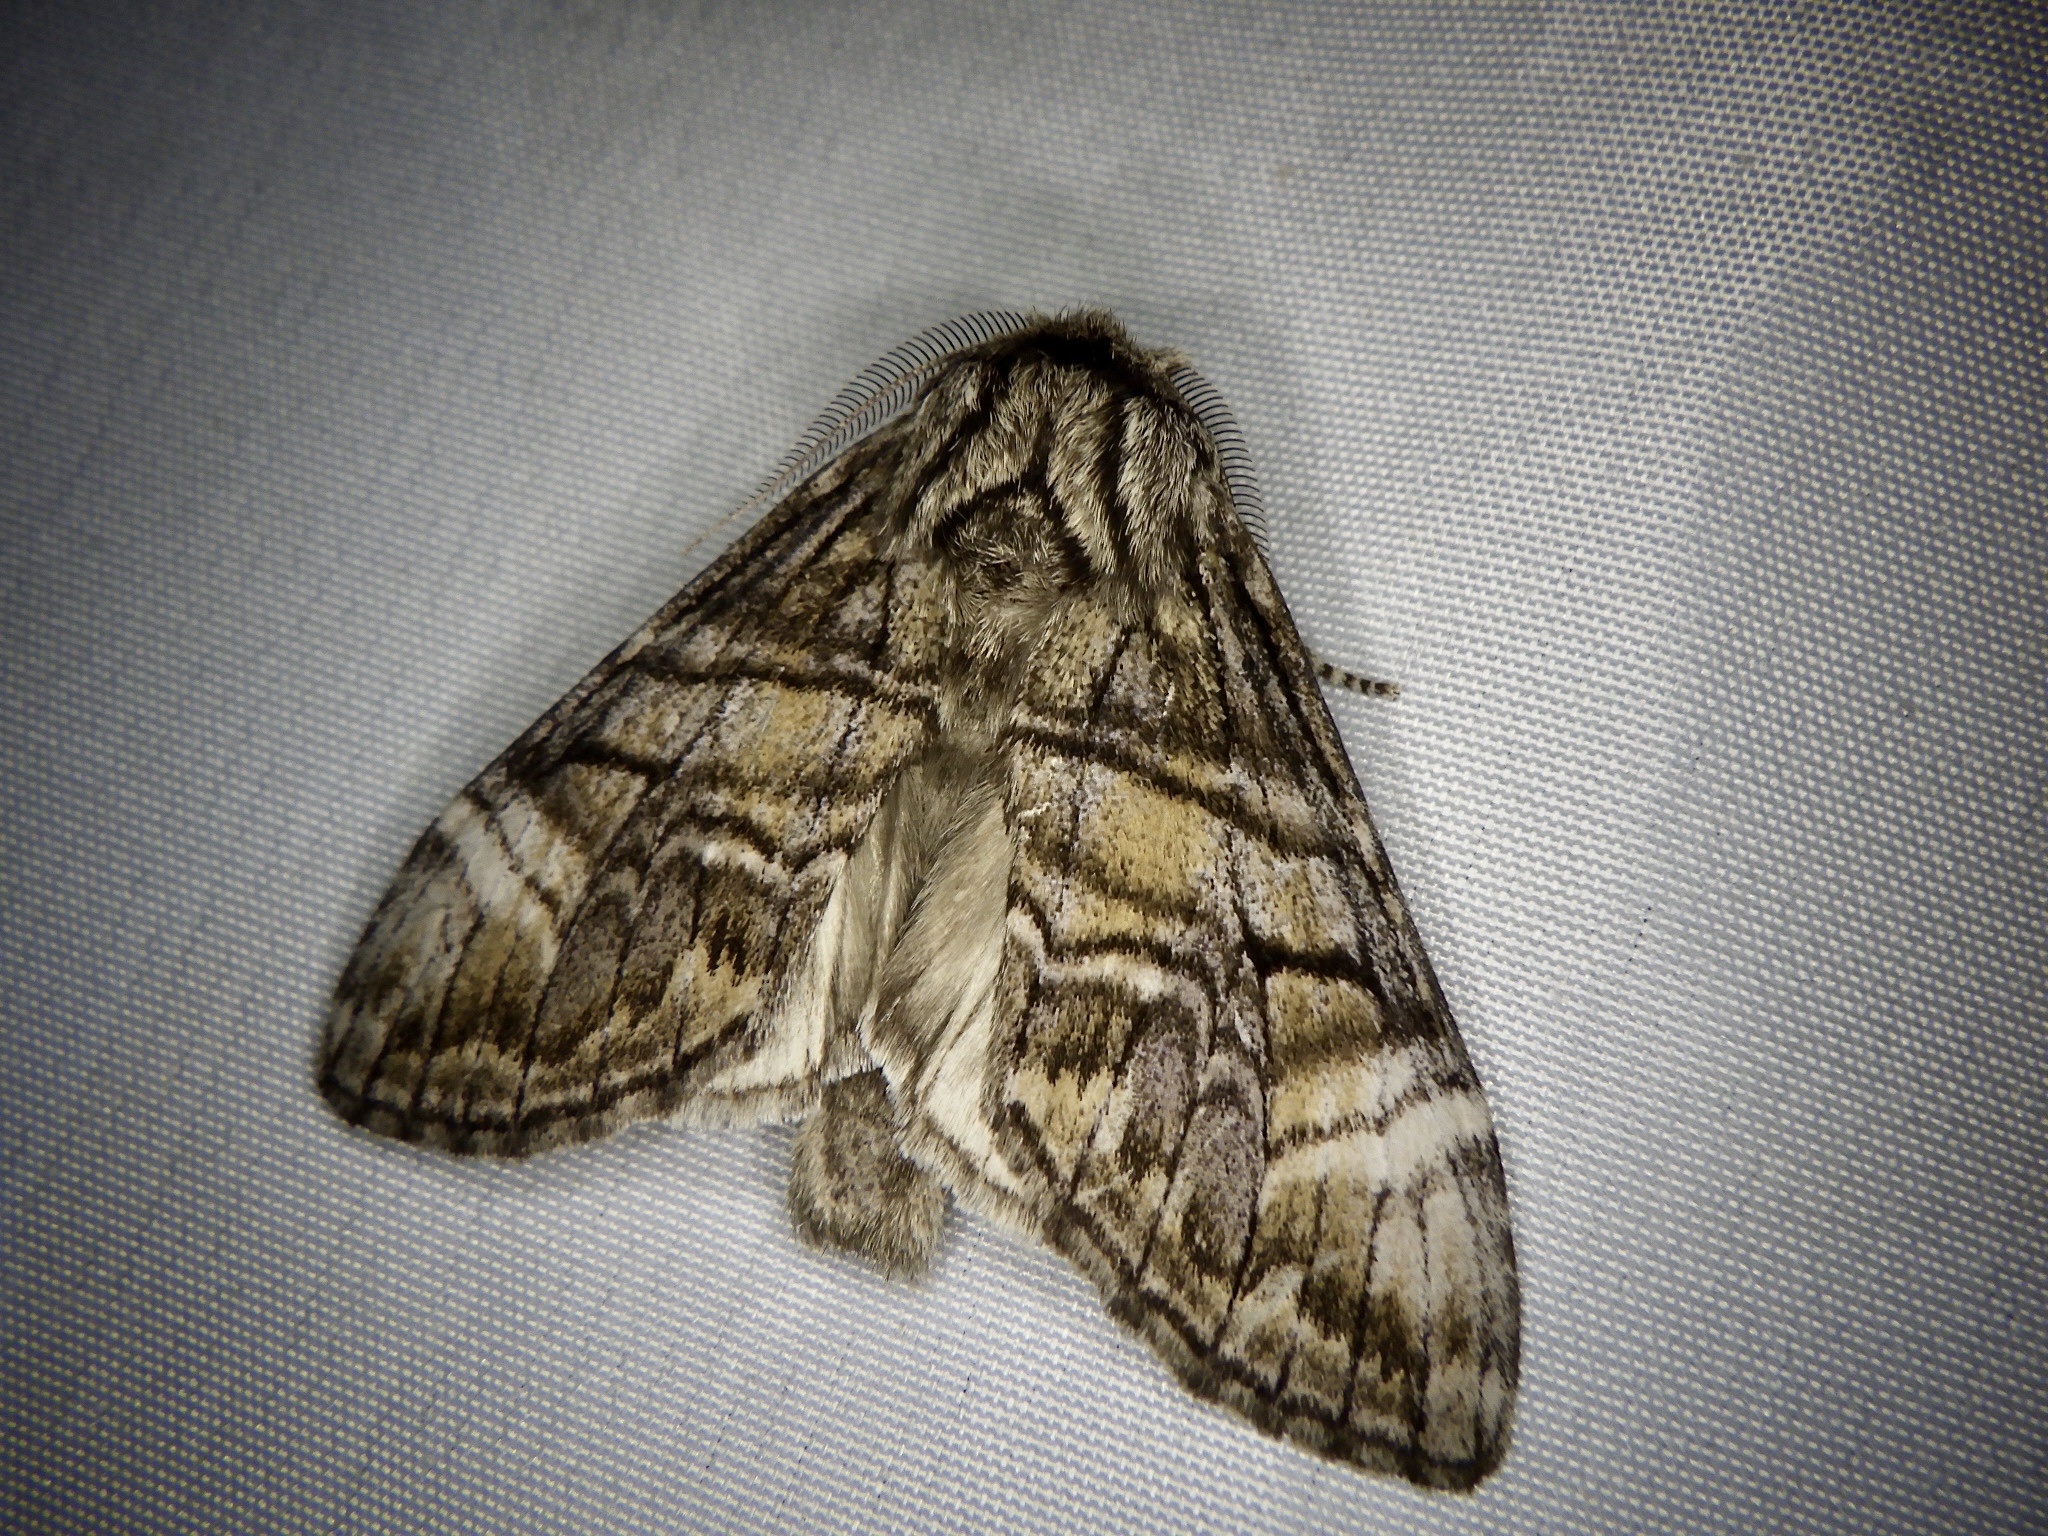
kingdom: Animalia
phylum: Arthropoda
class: Insecta
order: Lepidoptera
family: Notodontidae
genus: Epodonta
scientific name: Epodonta lineata
